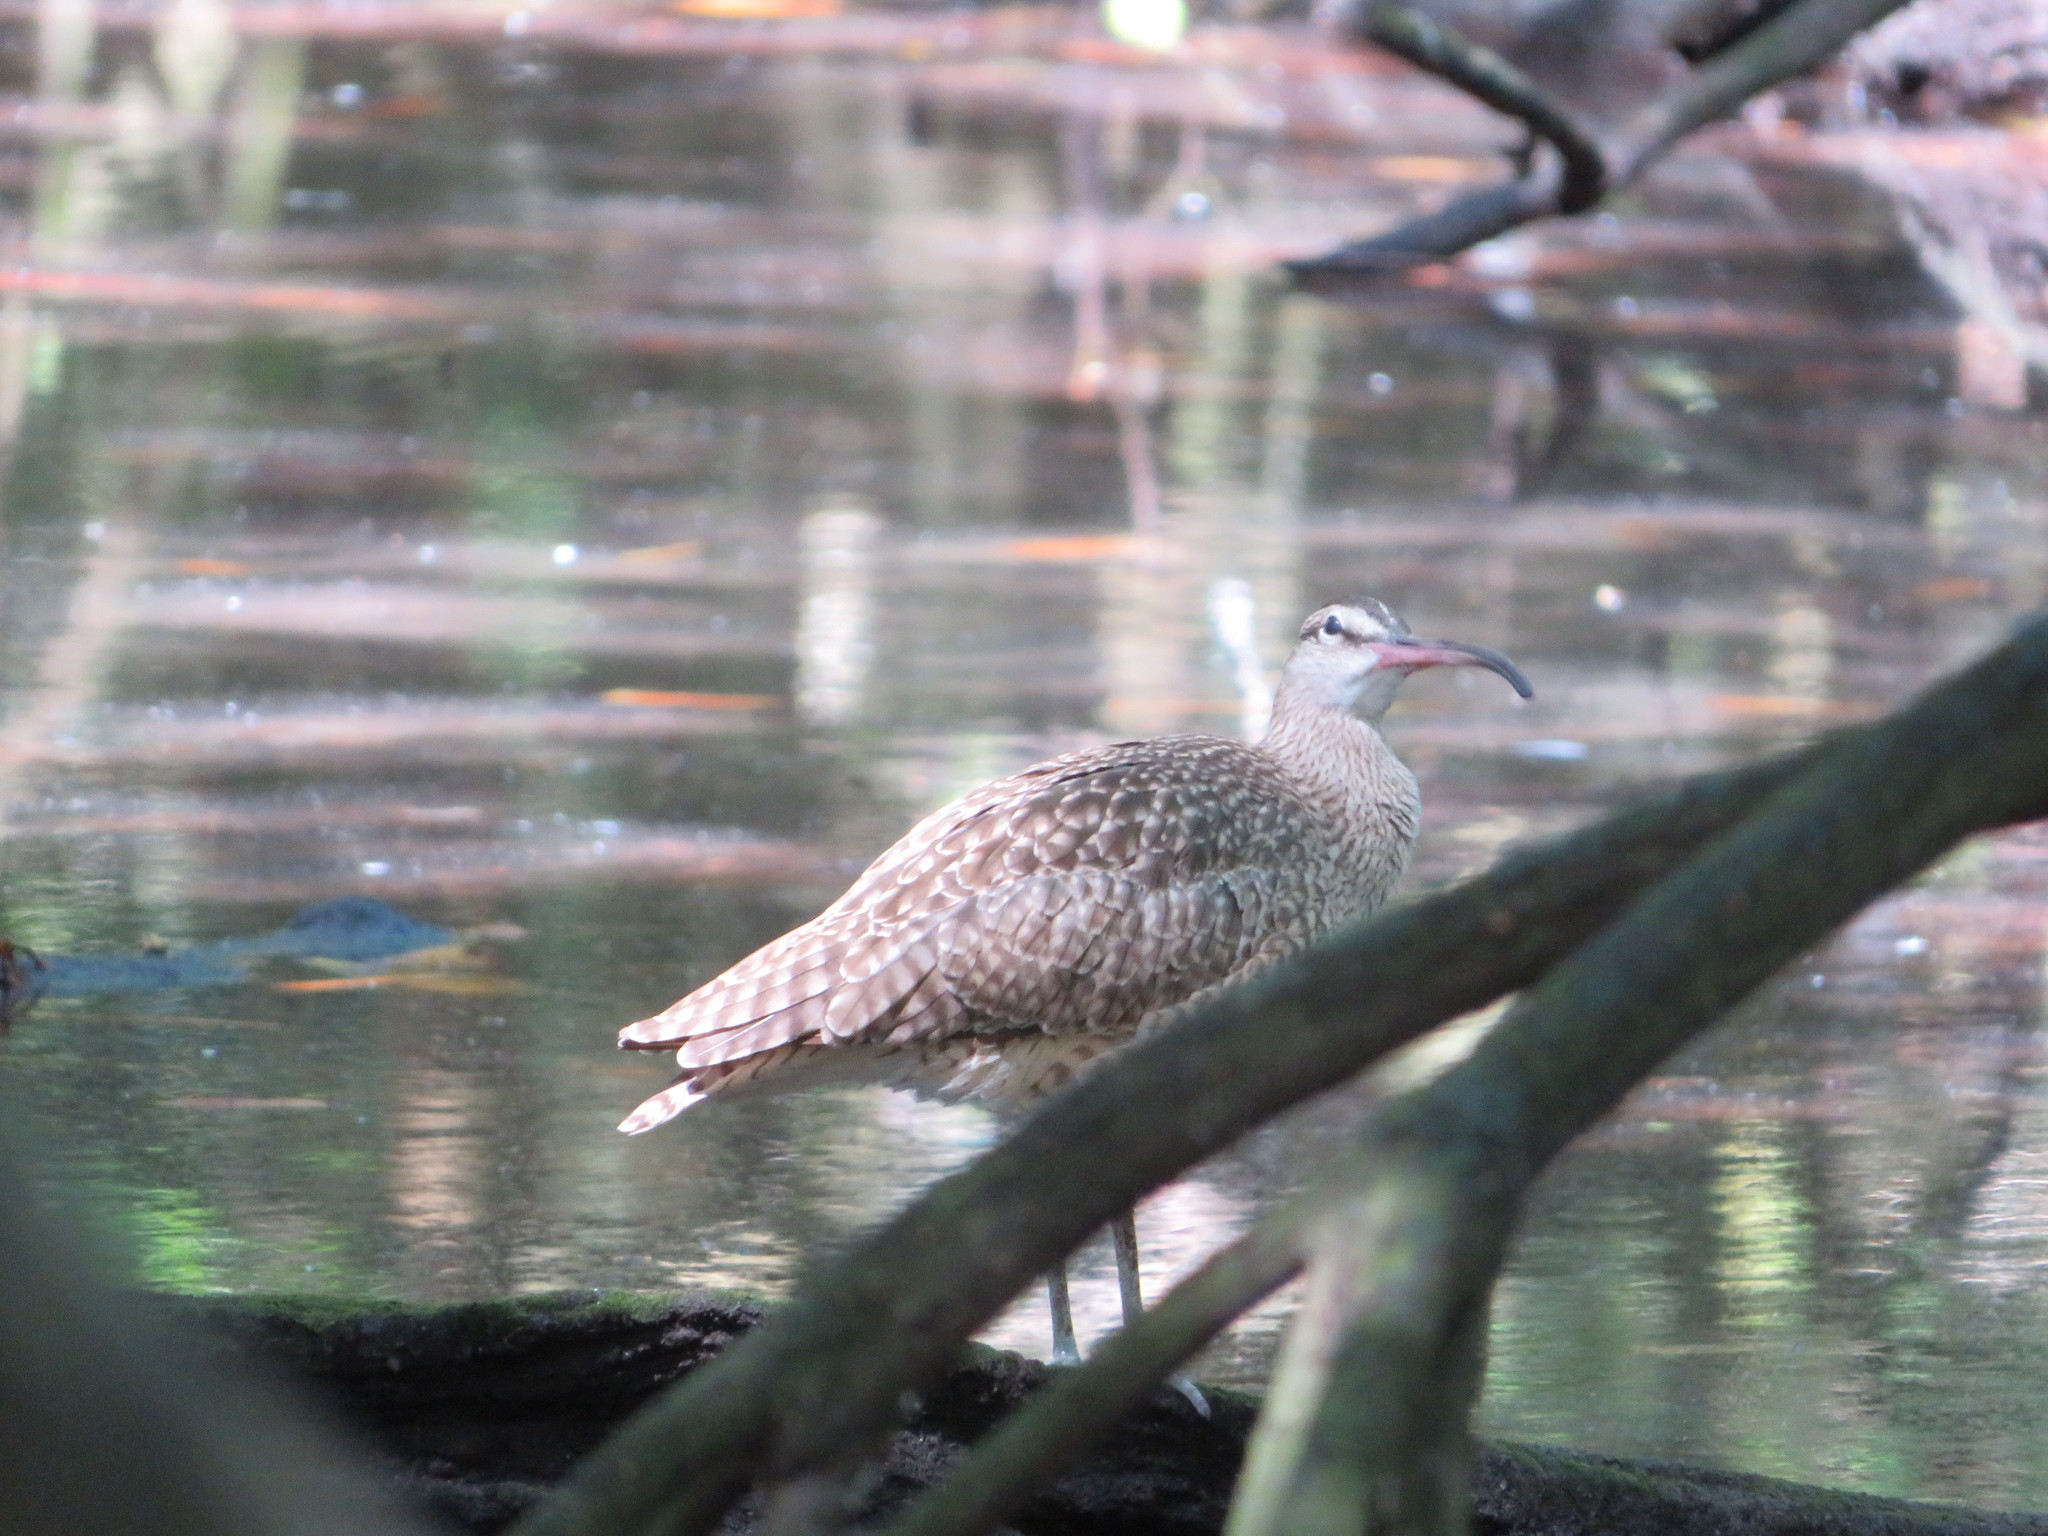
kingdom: Animalia
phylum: Chordata
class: Aves
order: Charadriiformes
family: Scolopacidae
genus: Numenius
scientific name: Numenius phaeopus
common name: Whimbrel
